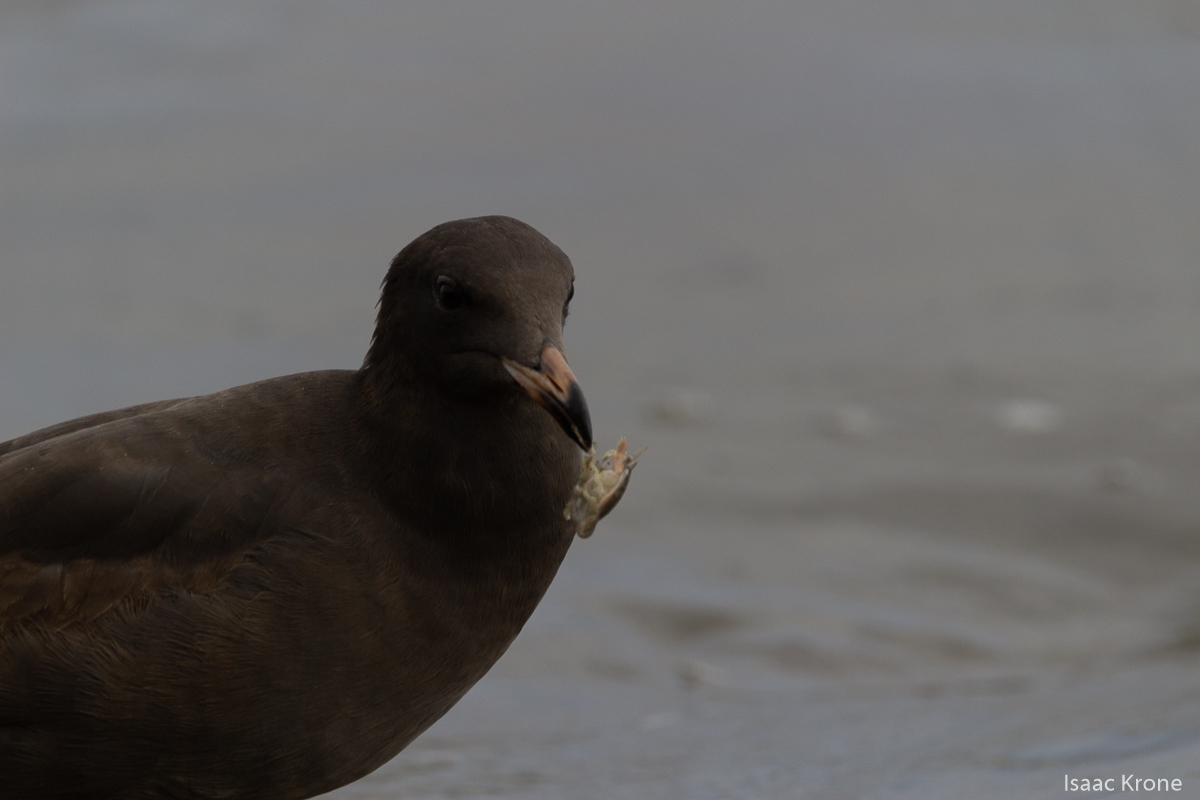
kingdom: Animalia
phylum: Arthropoda
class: Malacostraca
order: Decapoda
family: Hippidae
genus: Emerita
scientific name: Emerita analoga
